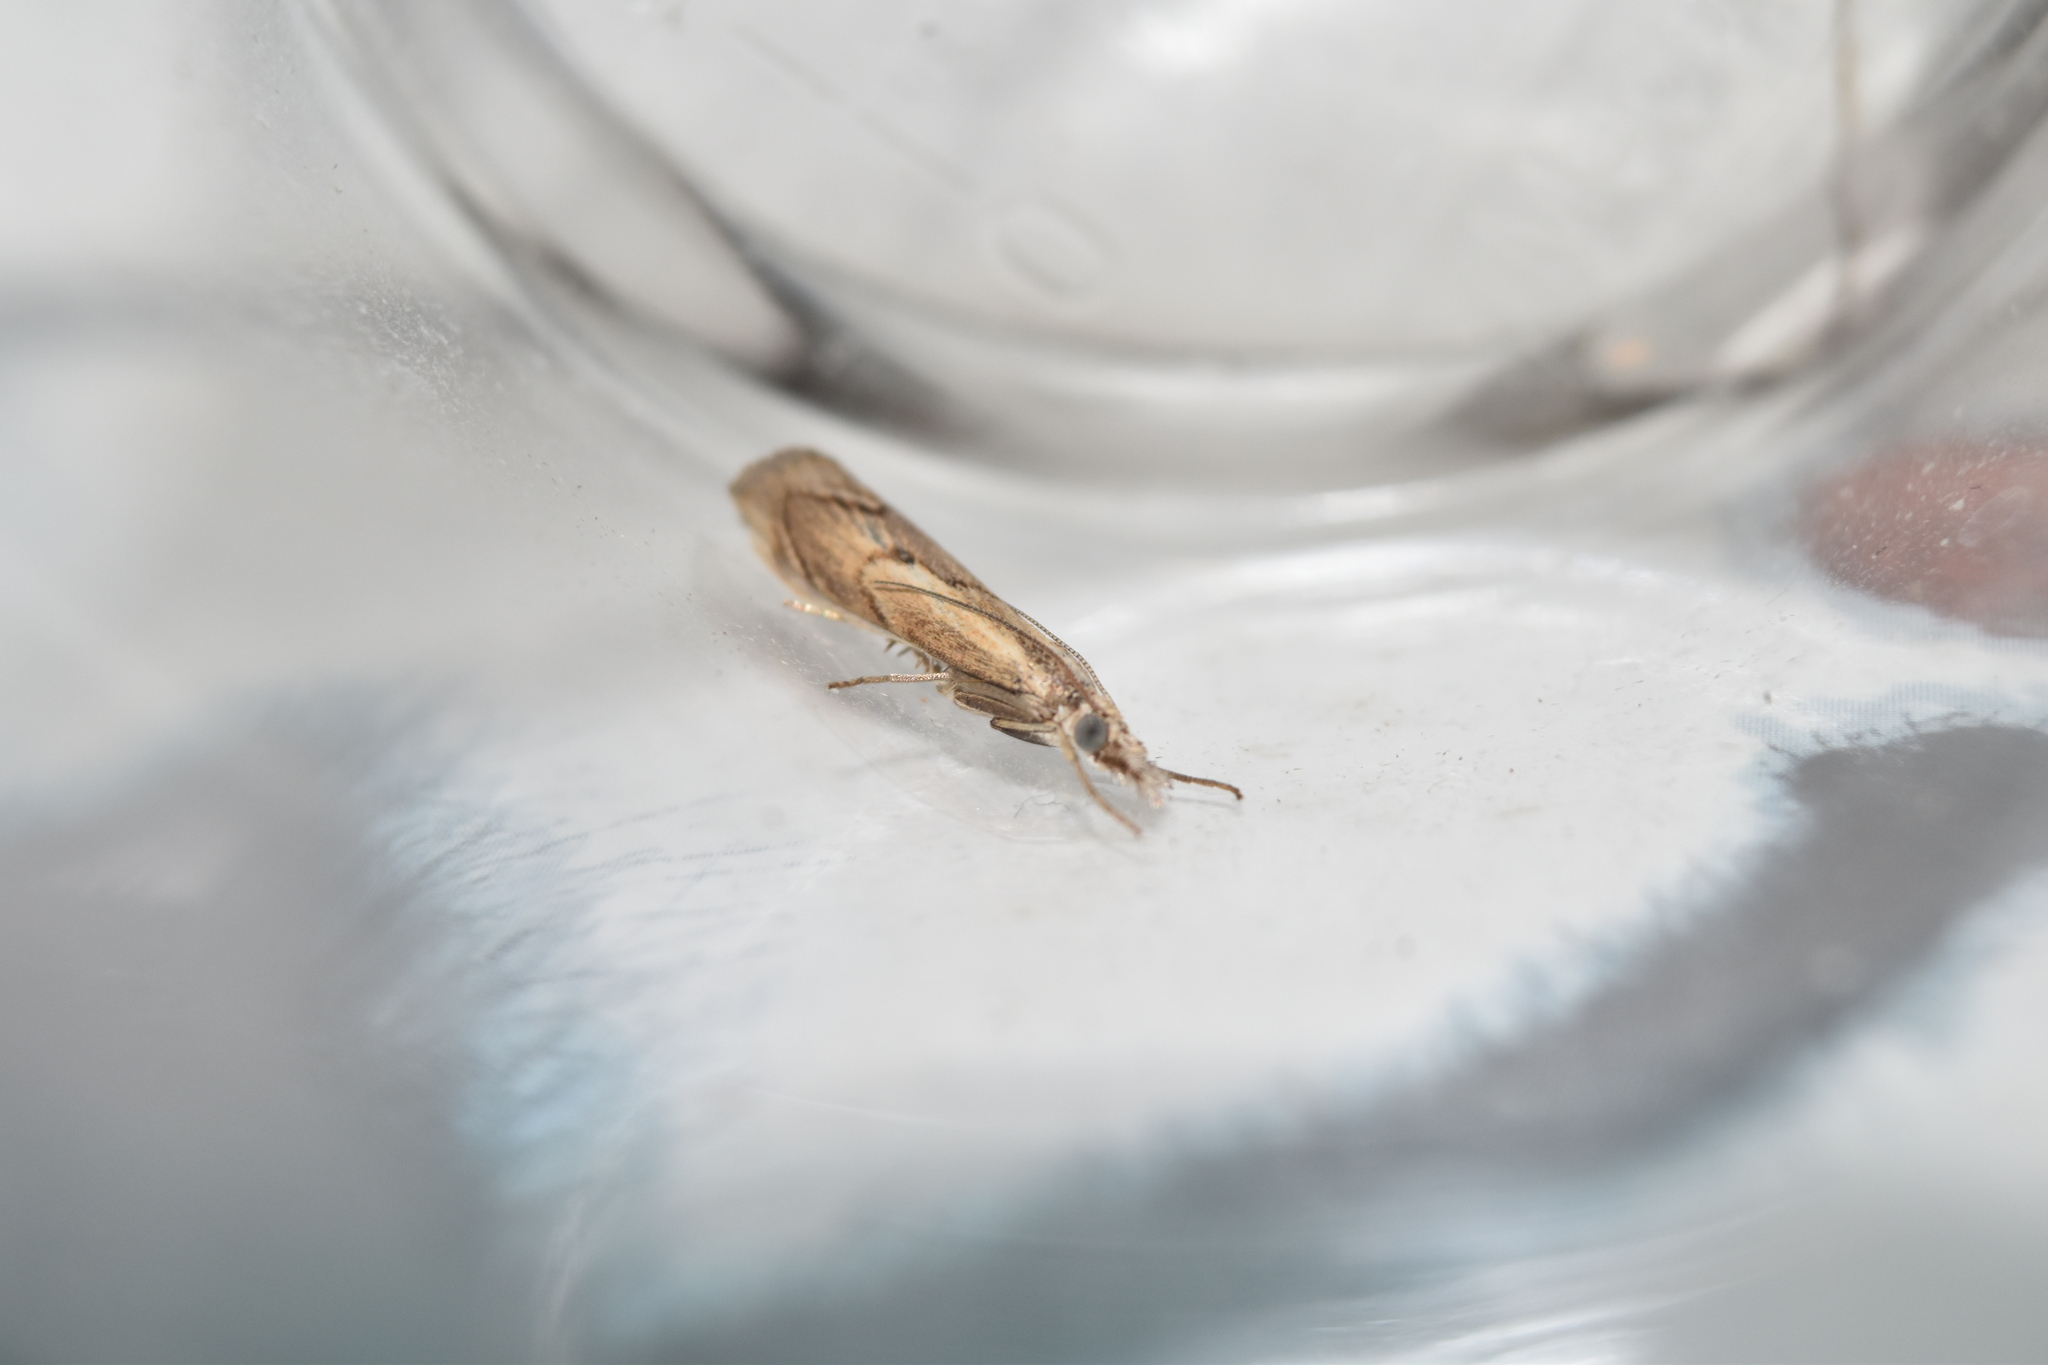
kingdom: Animalia
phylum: Arthropoda
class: Insecta
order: Lepidoptera
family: Crambidae
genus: Agriphila
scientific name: Agriphila geniculea
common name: Elbow-stripe grass-veneer
